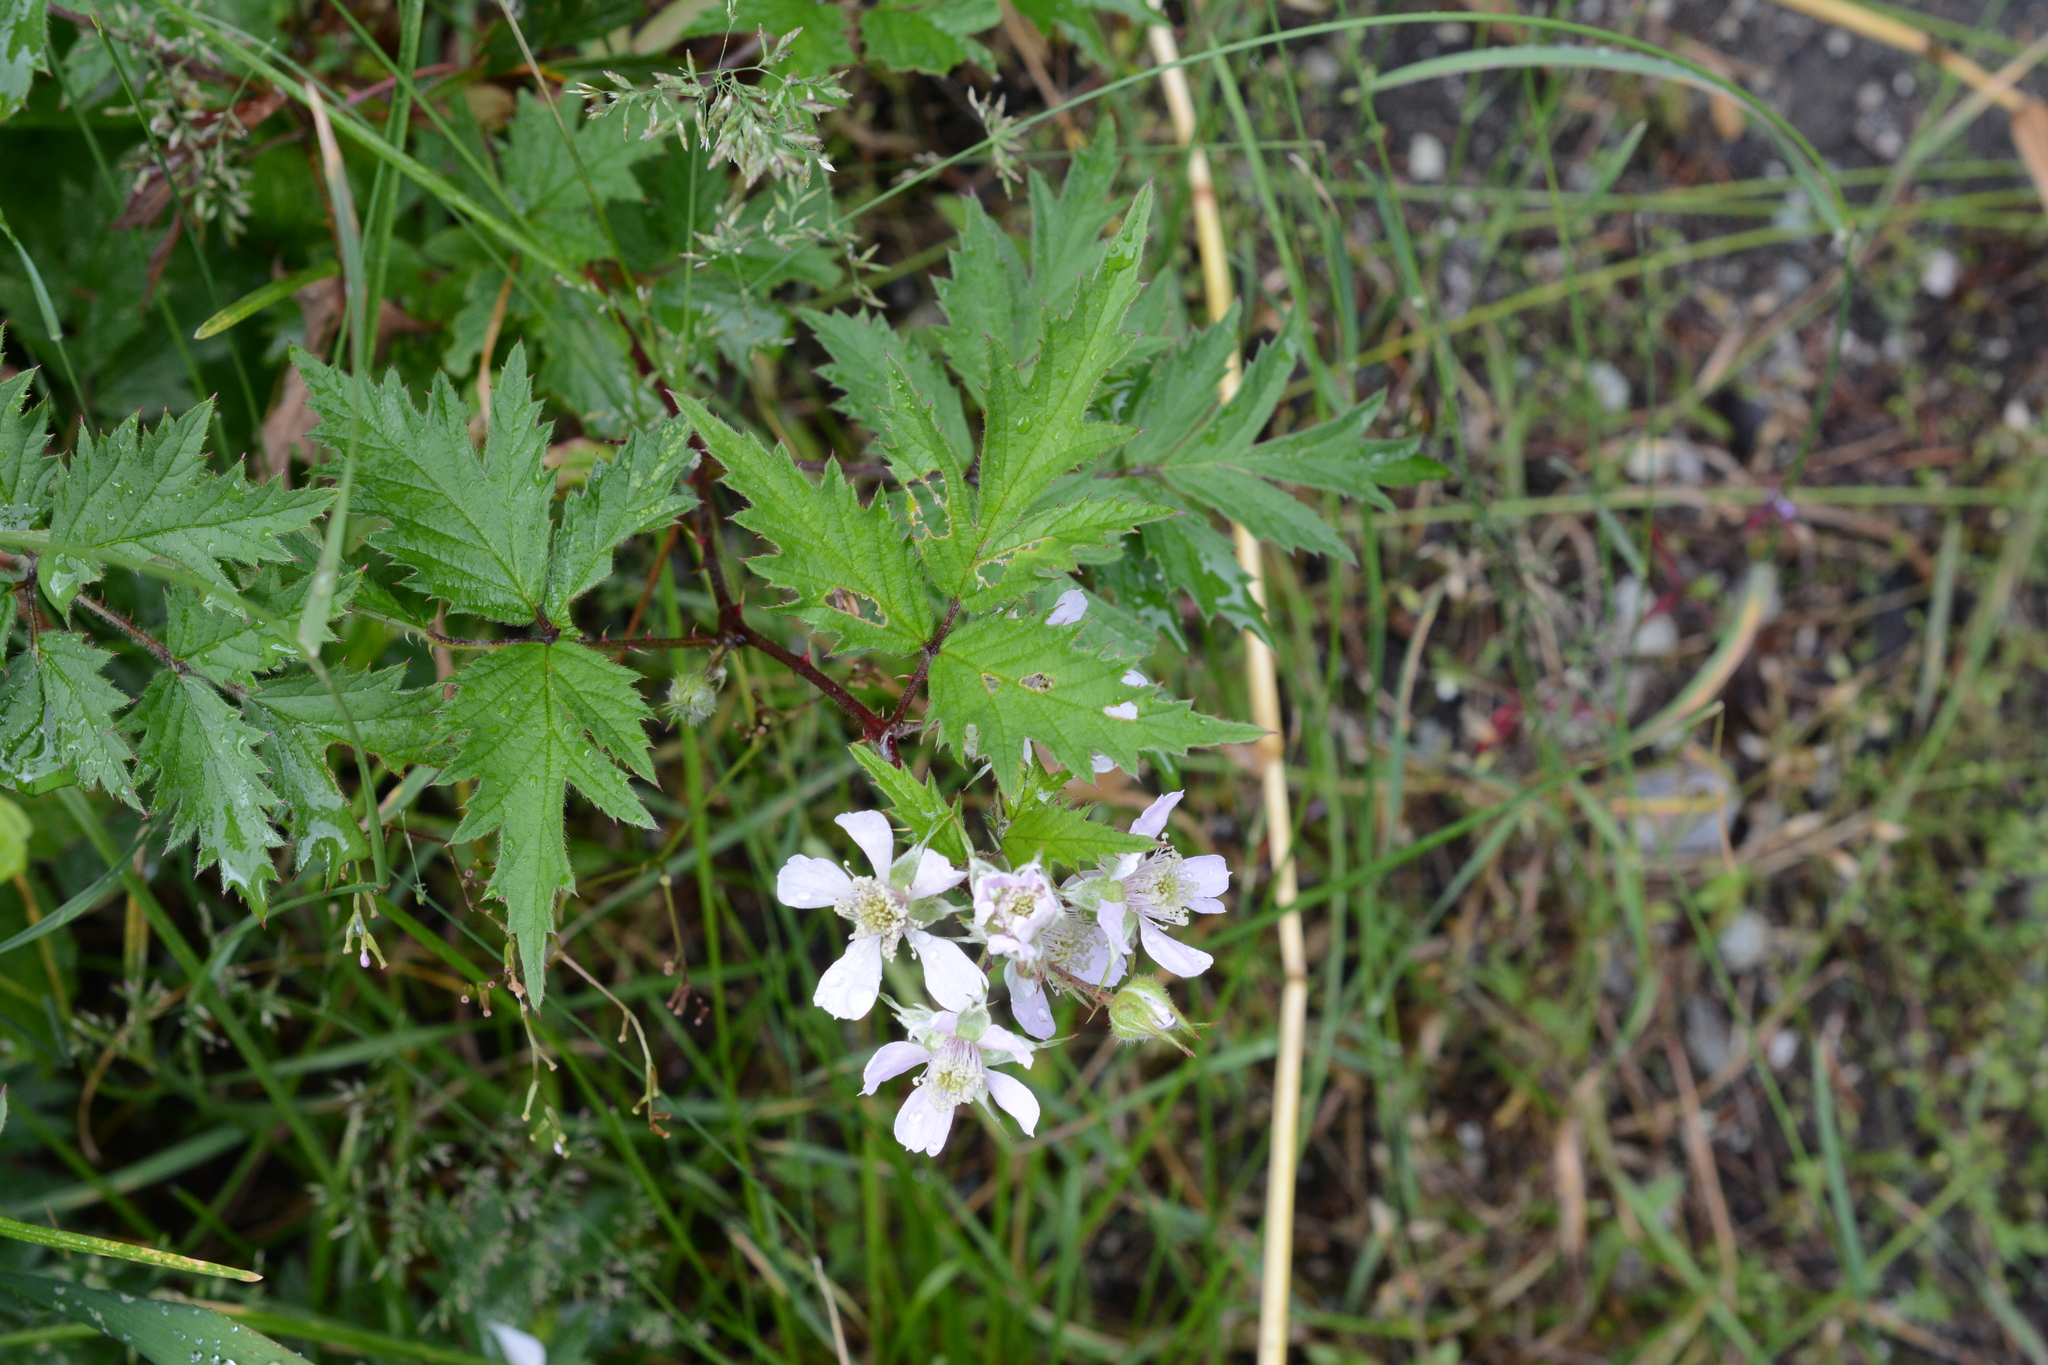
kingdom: Plantae
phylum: Tracheophyta
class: Magnoliopsida
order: Rosales
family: Rosaceae
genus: Rubus
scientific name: Rubus laciniatus
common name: Evergreen blackberry
